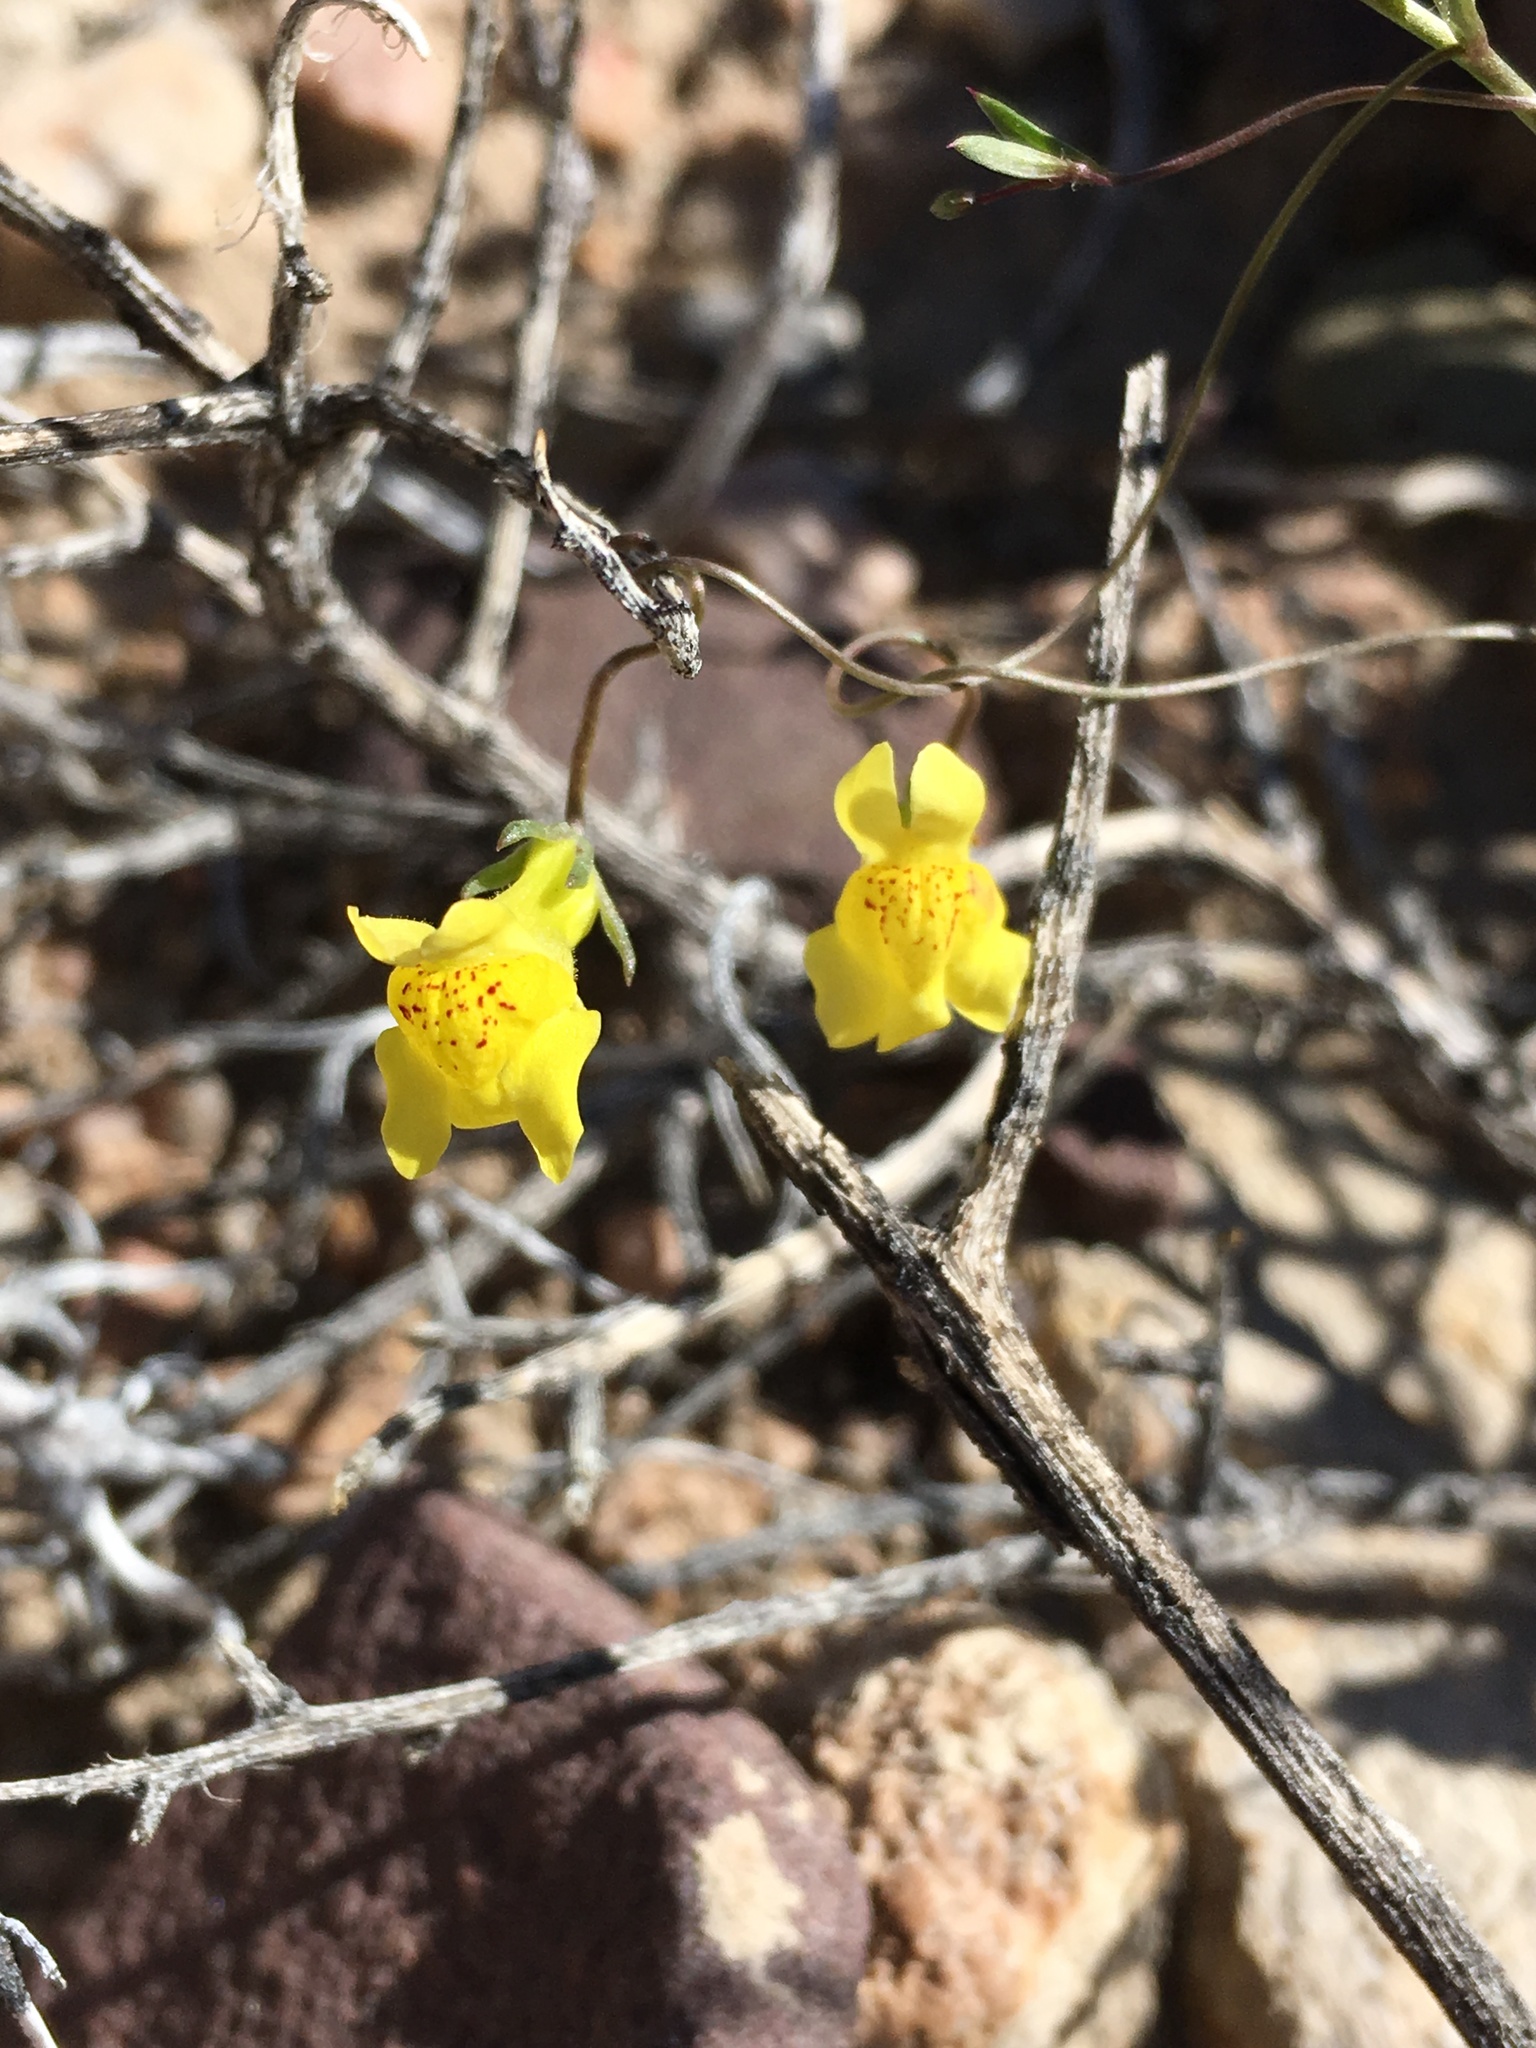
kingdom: Plantae
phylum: Tracheophyta
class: Magnoliopsida
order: Lamiales
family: Plantaginaceae
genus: Neogaerrhinum
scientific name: Neogaerrhinum filipes
